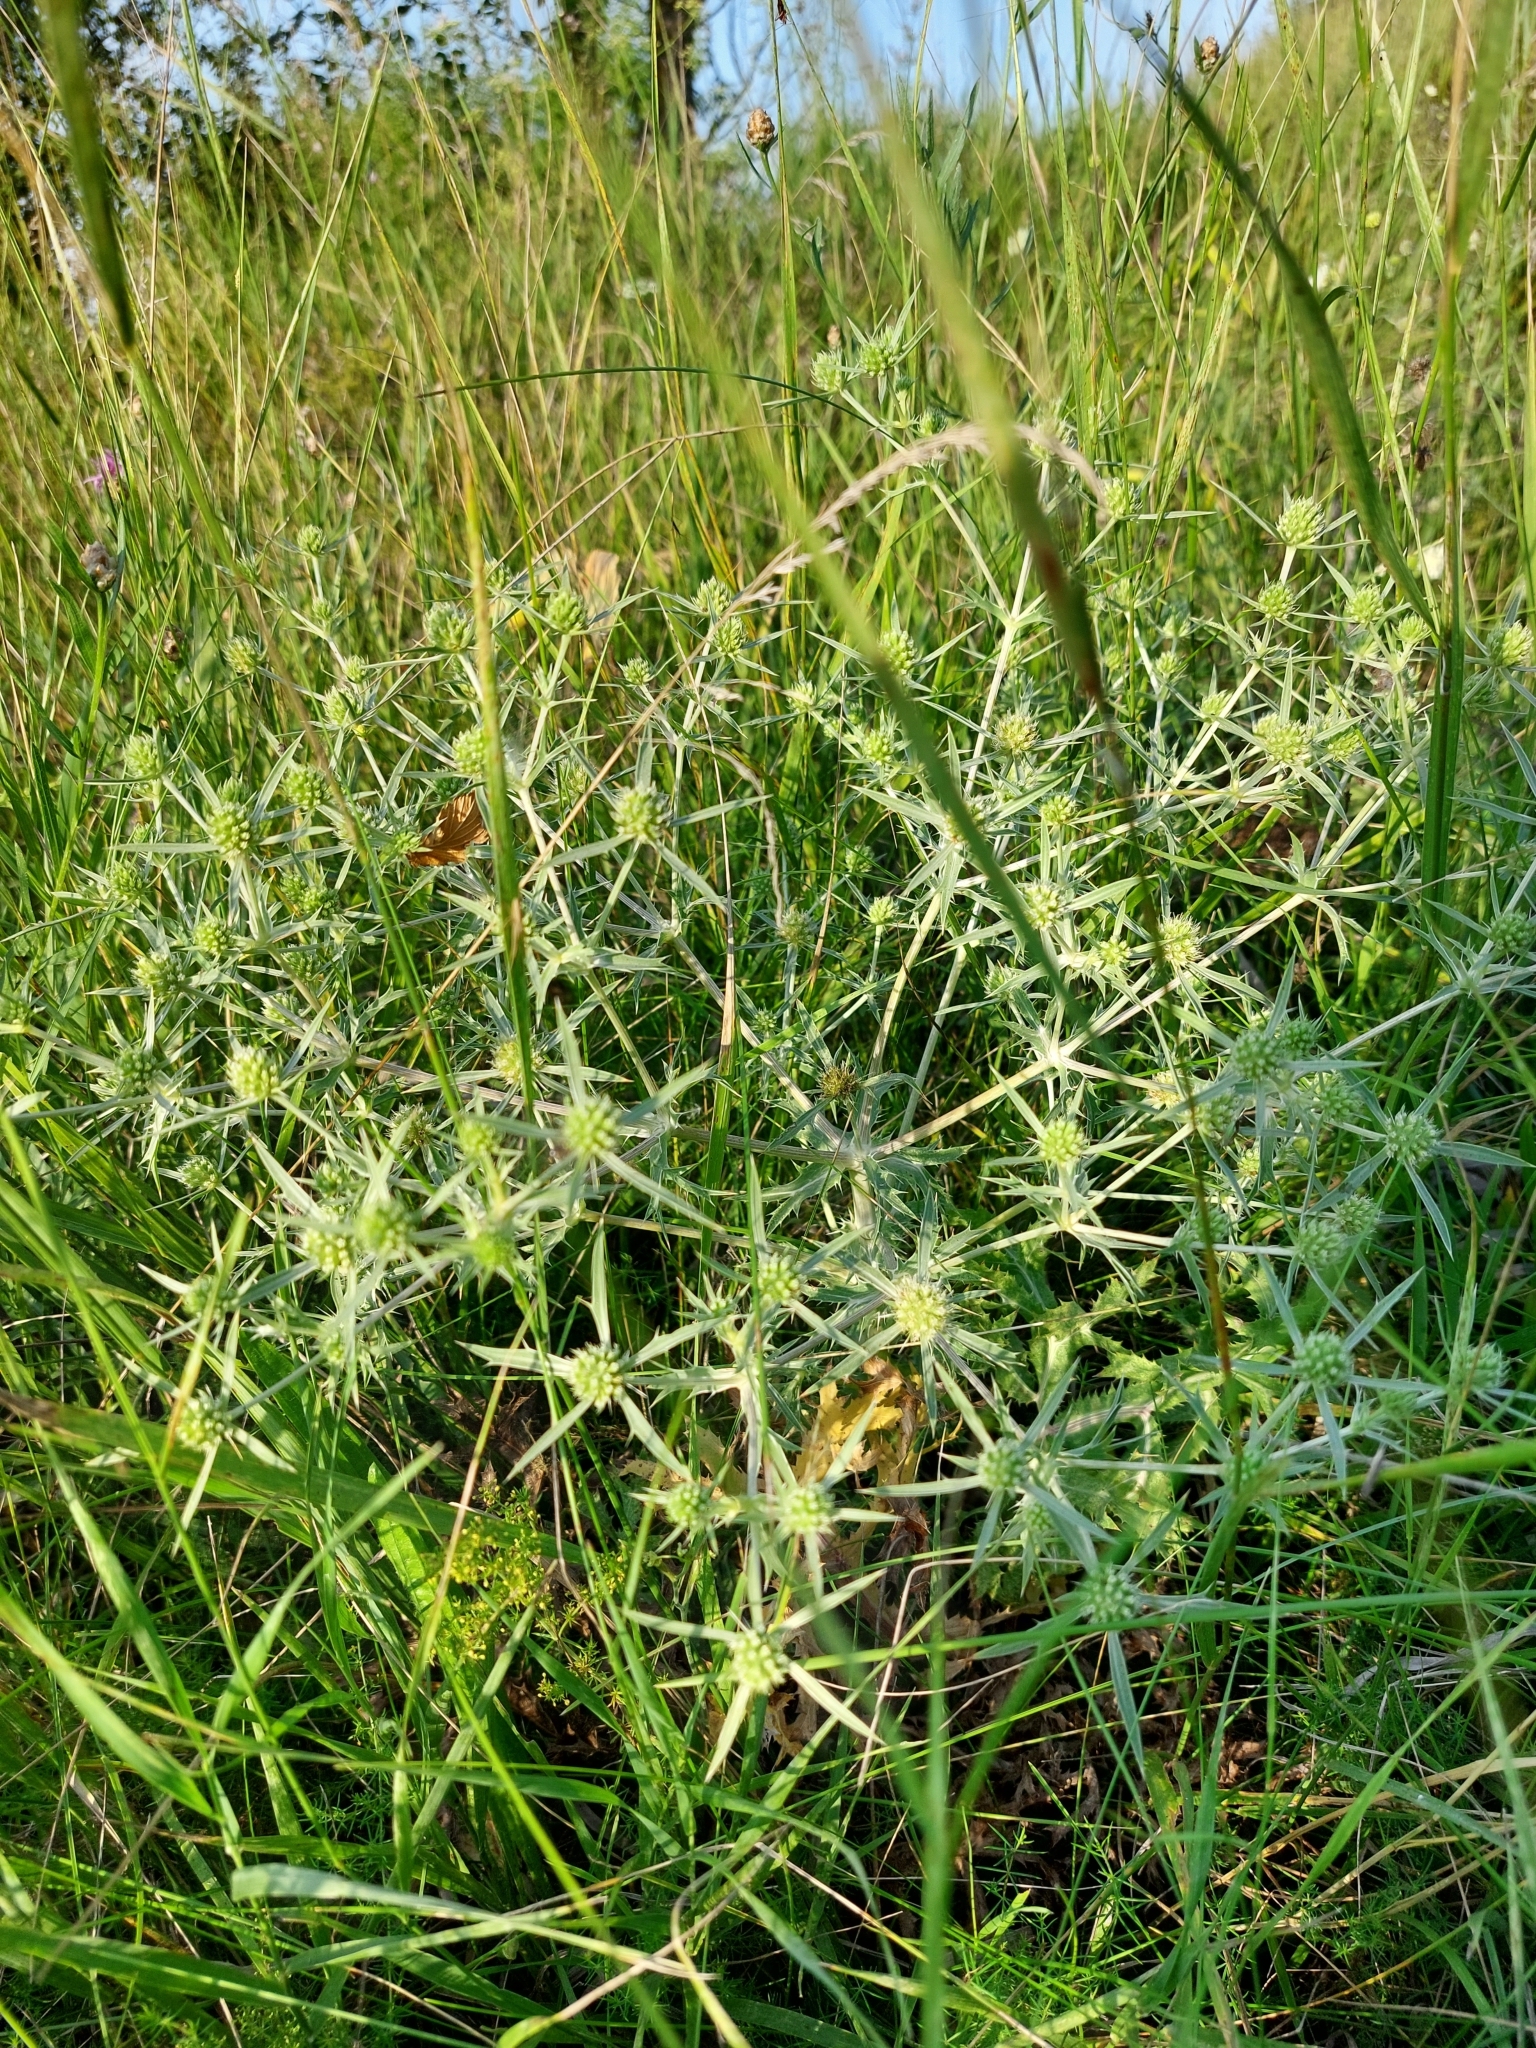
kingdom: Plantae
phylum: Tracheophyta
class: Magnoliopsida
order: Apiales
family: Apiaceae
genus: Eryngium
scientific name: Eryngium campestre
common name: Field eryngo
